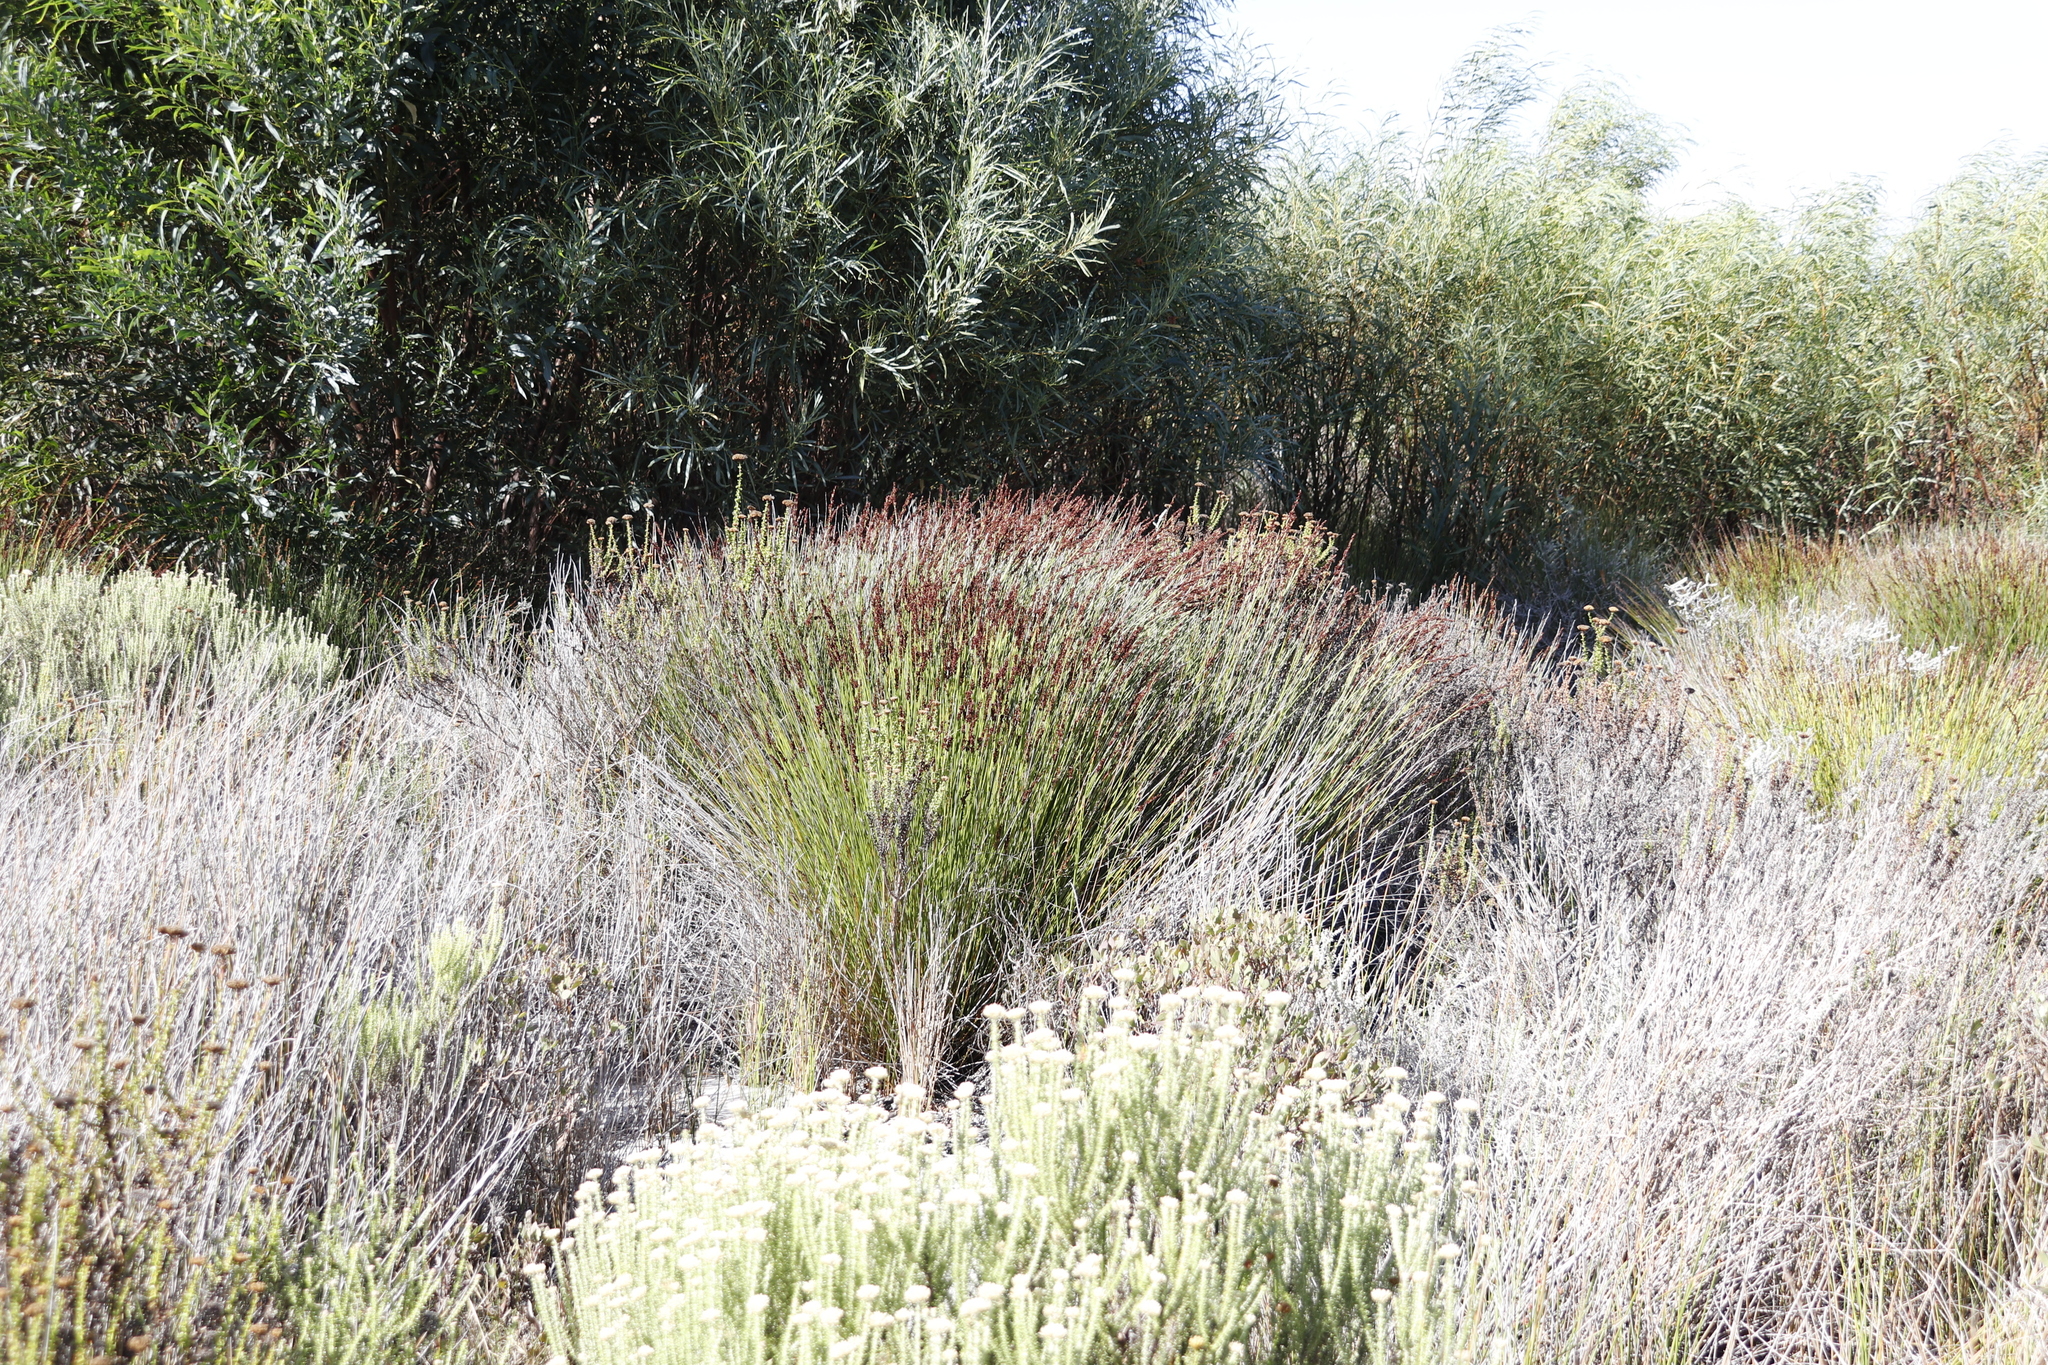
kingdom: Plantae
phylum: Tracheophyta
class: Liliopsida
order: Poales
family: Restionaceae
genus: Elegia
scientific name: Elegia tectorum
